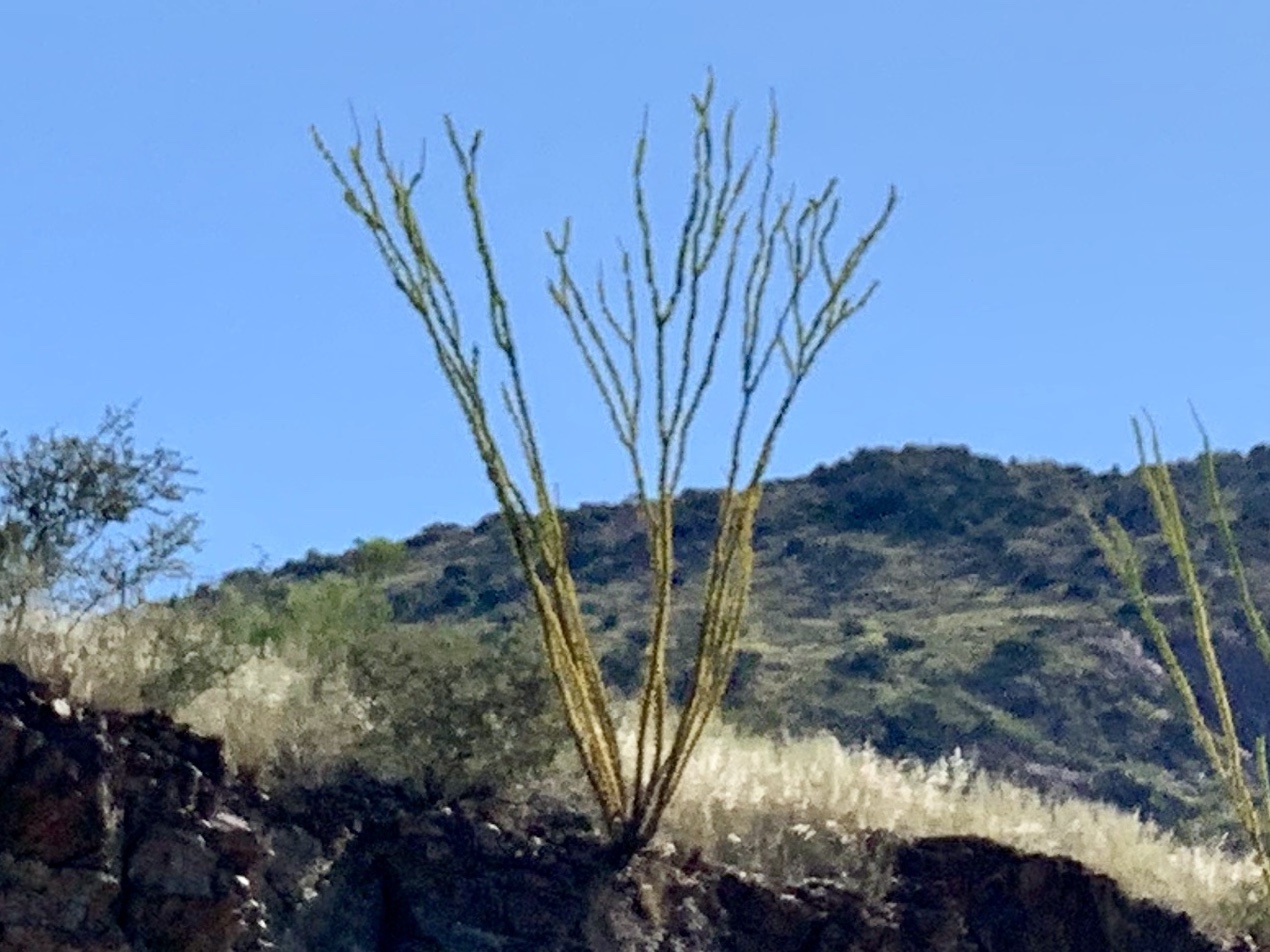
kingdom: Plantae
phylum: Tracheophyta
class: Magnoliopsida
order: Ericales
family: Fouquieriaceae
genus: Fouquieria
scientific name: Fouquieria splendens
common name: Vine-cactus
